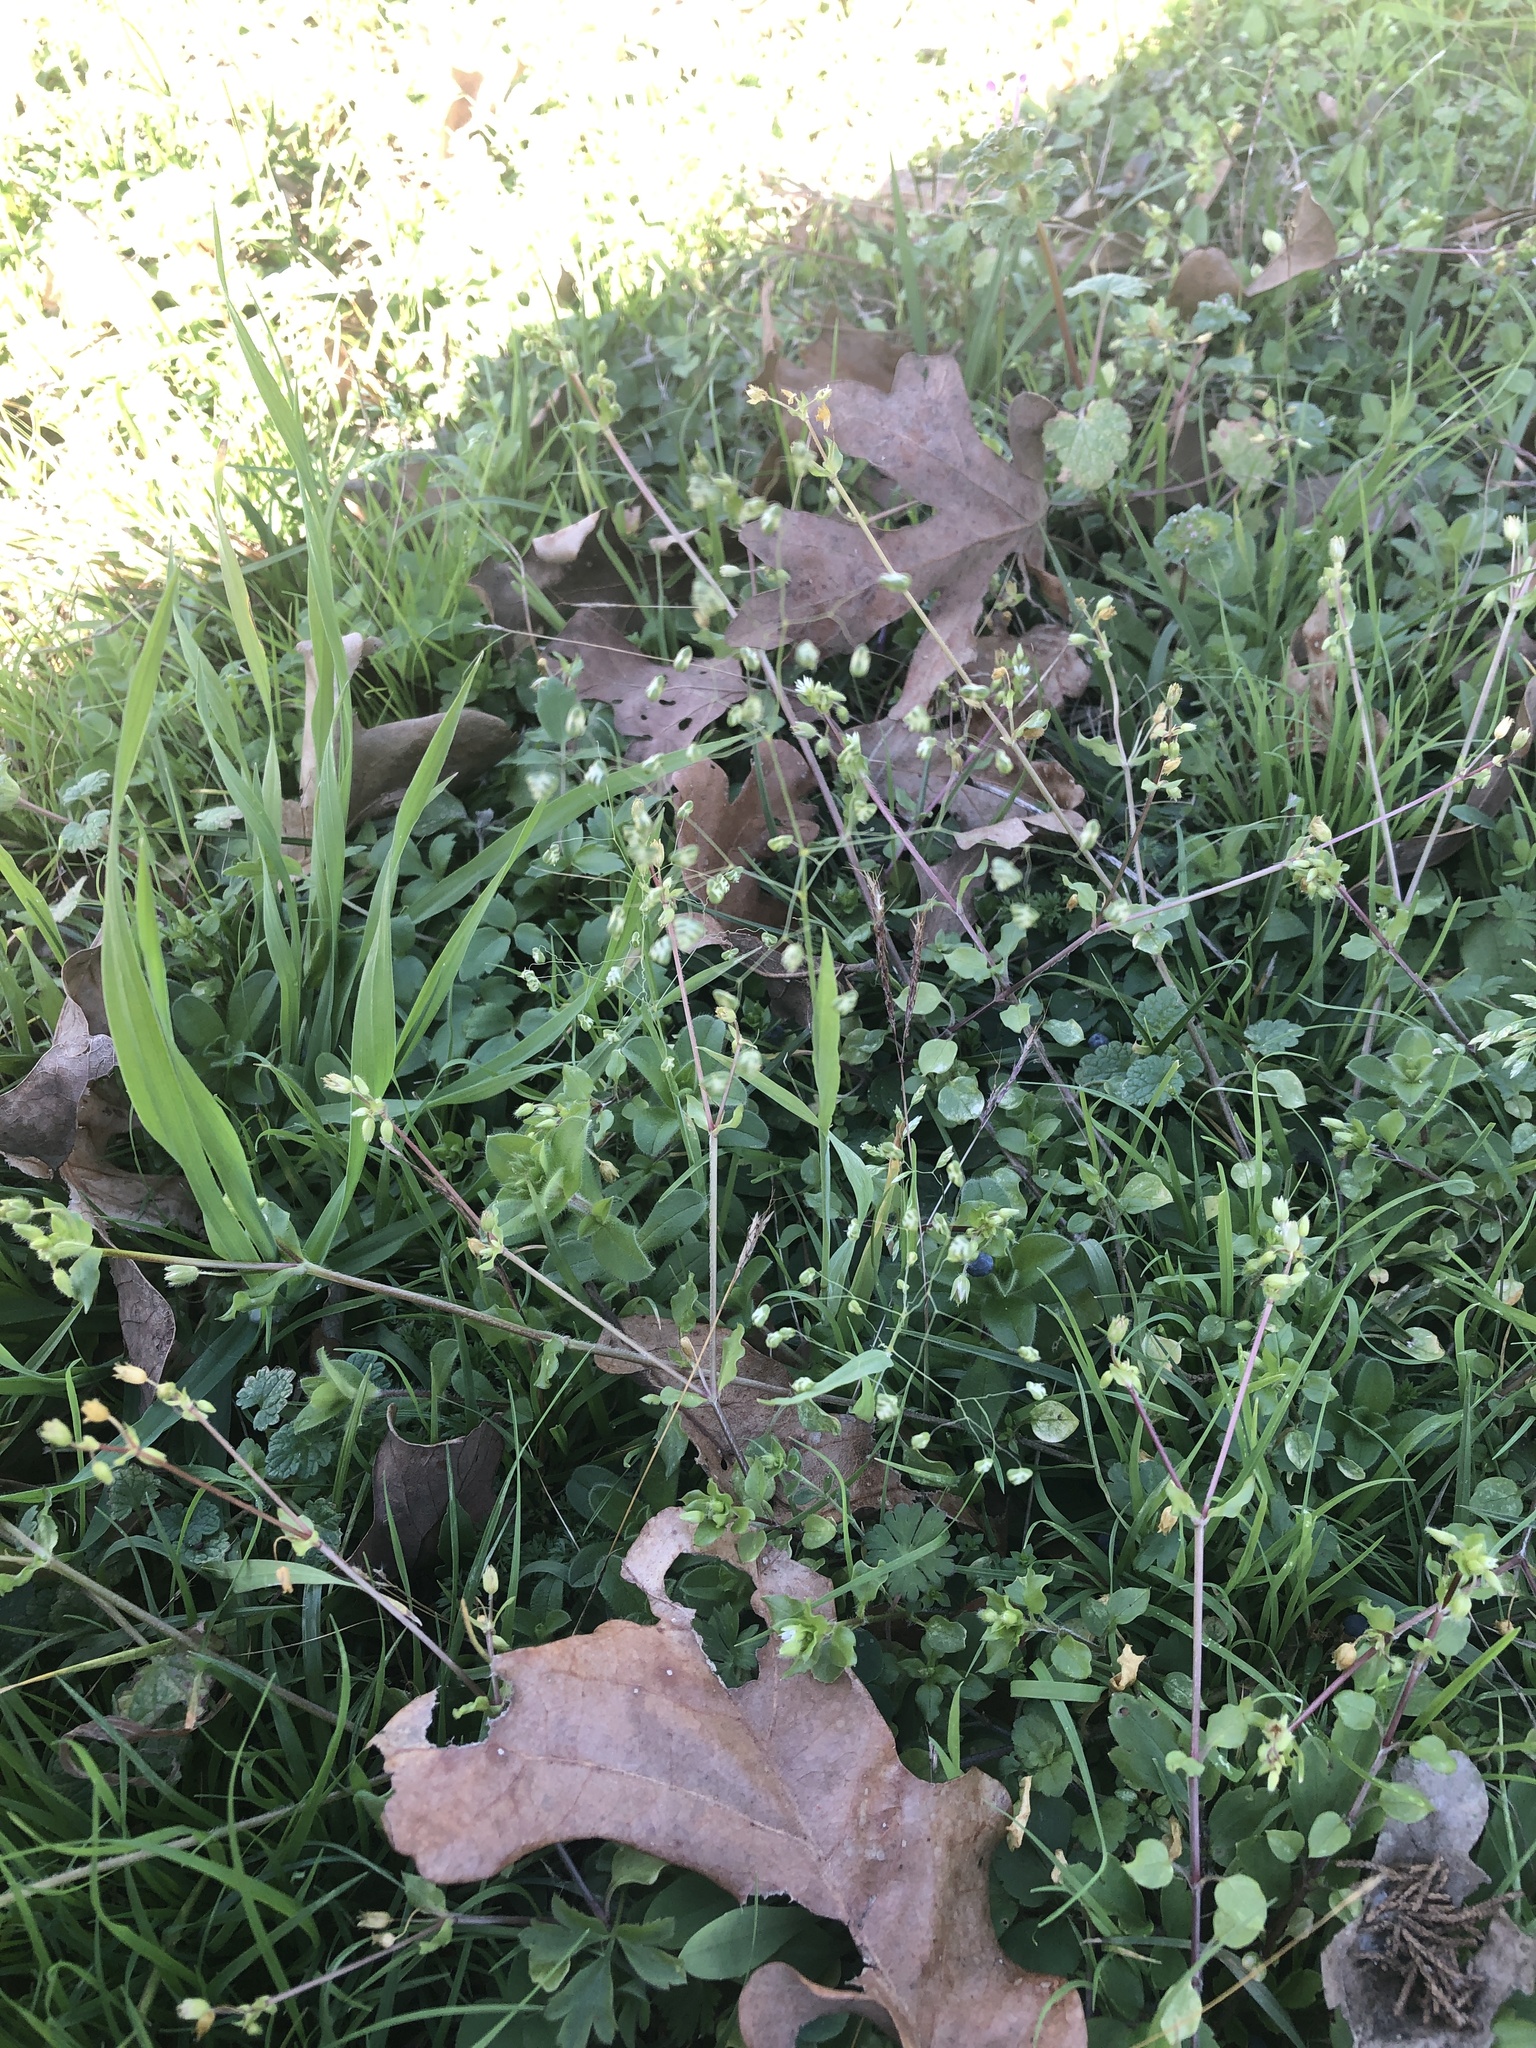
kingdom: Plantae
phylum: Tracheophyta
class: Liliopsida
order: Poales
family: Poaceae
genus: Briza
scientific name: Briza minor
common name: Lesser quaking-grass
